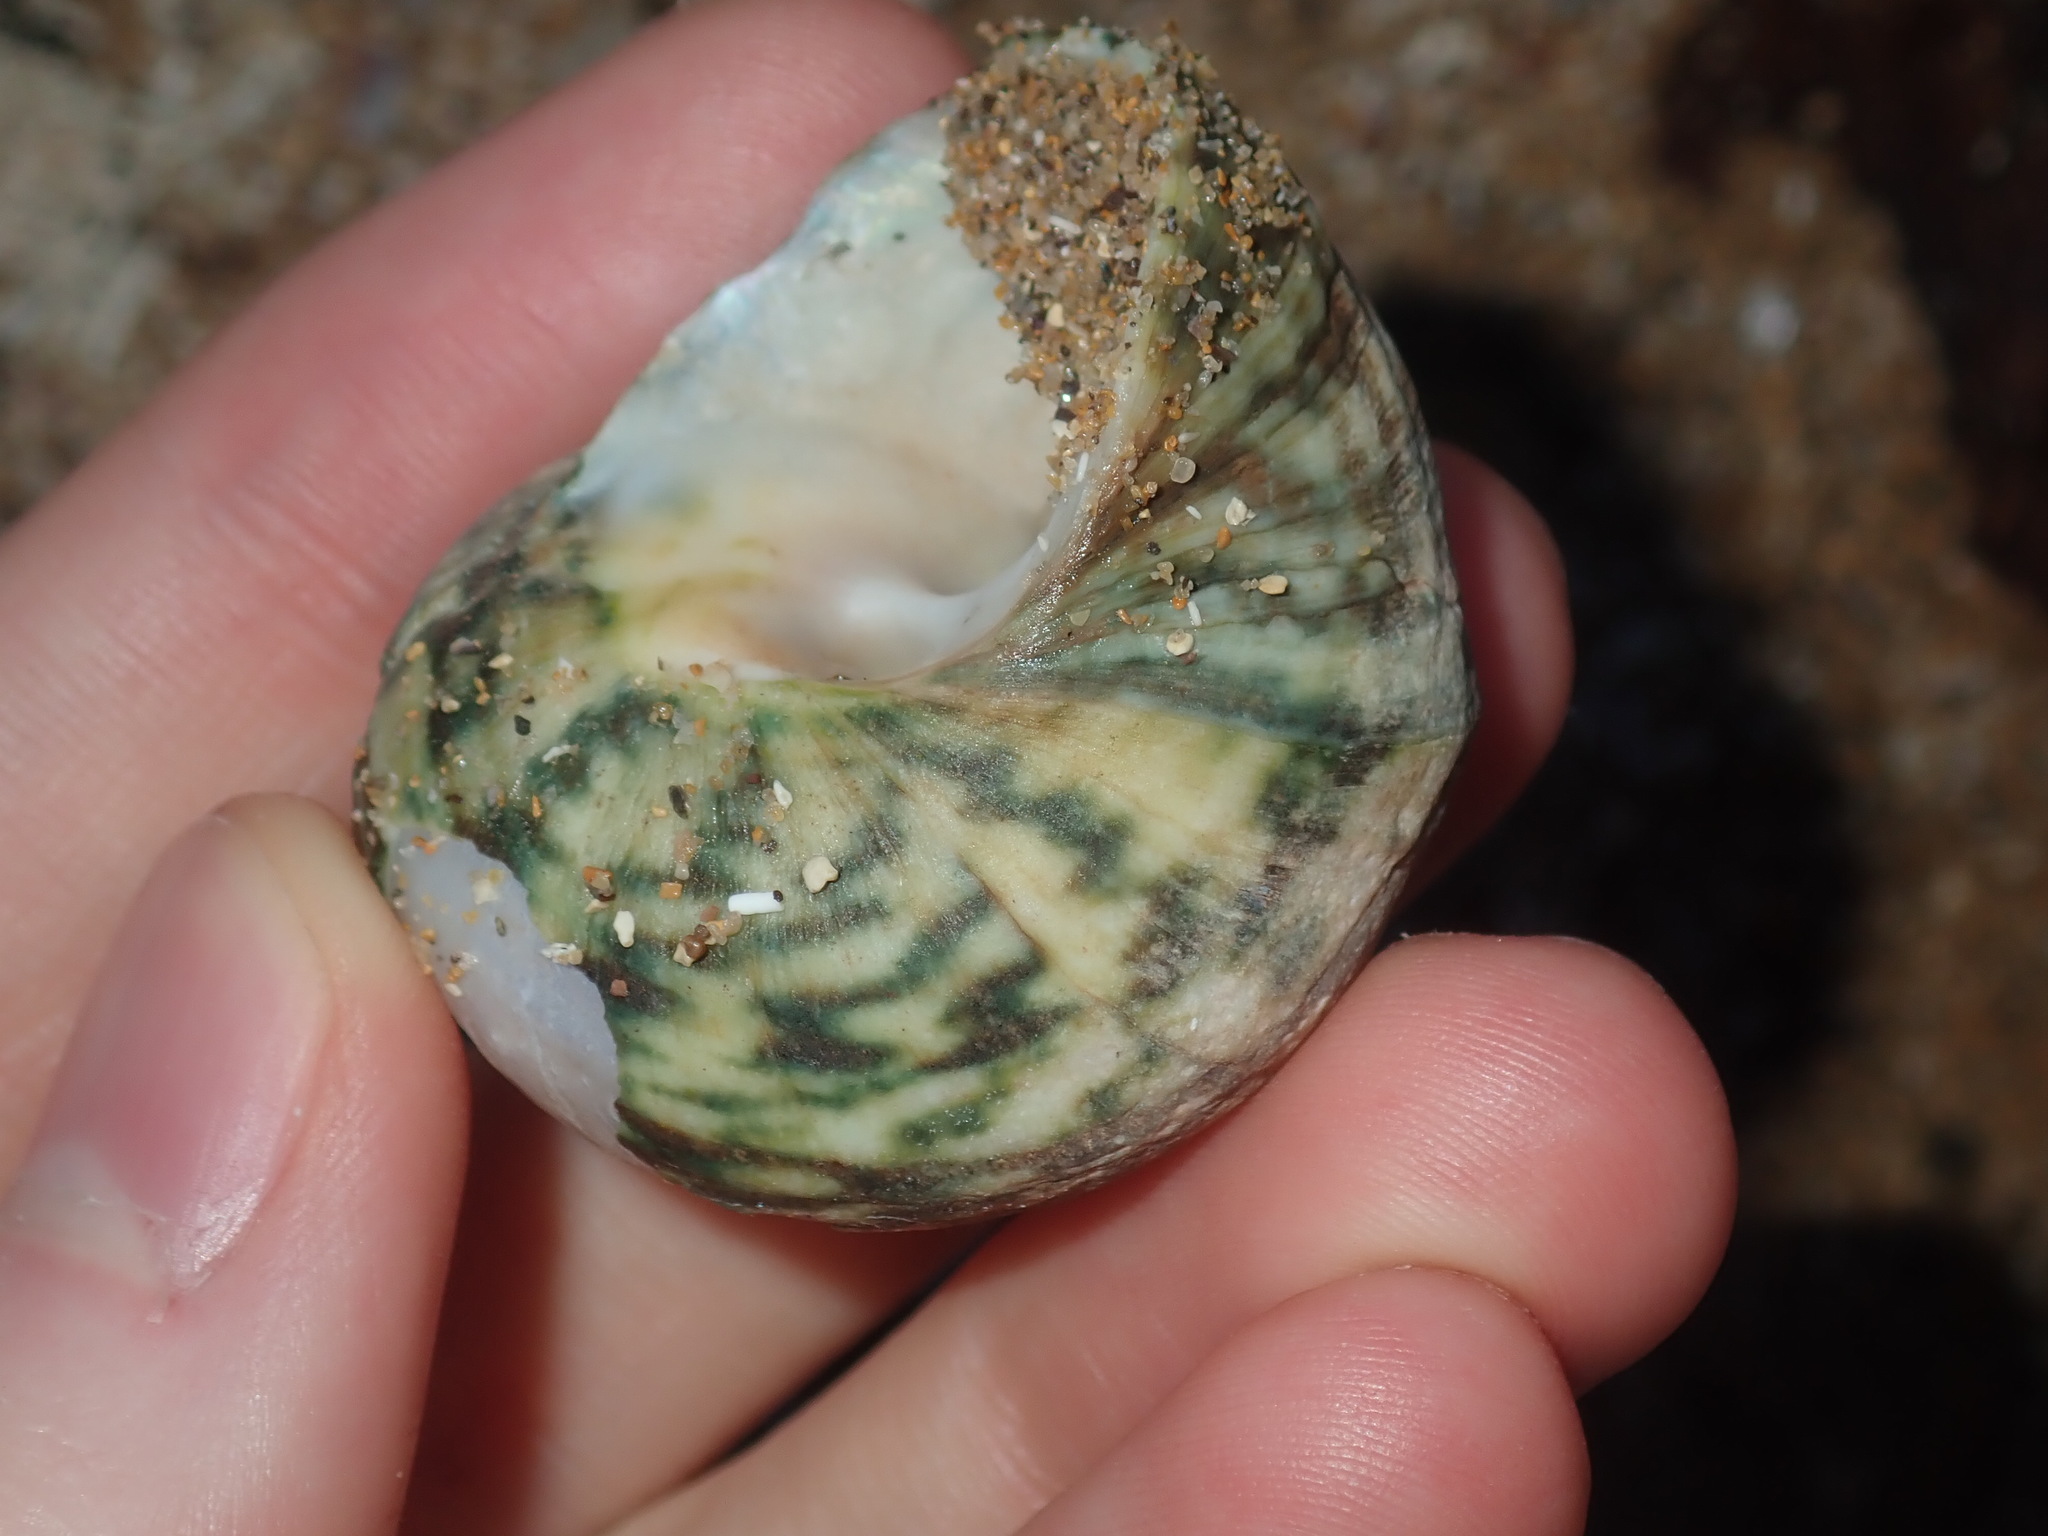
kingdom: Animalia
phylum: Mollusca
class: Gastropoda
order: Trochida
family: Turbinidae
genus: Lunella
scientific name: Lunella undulata
